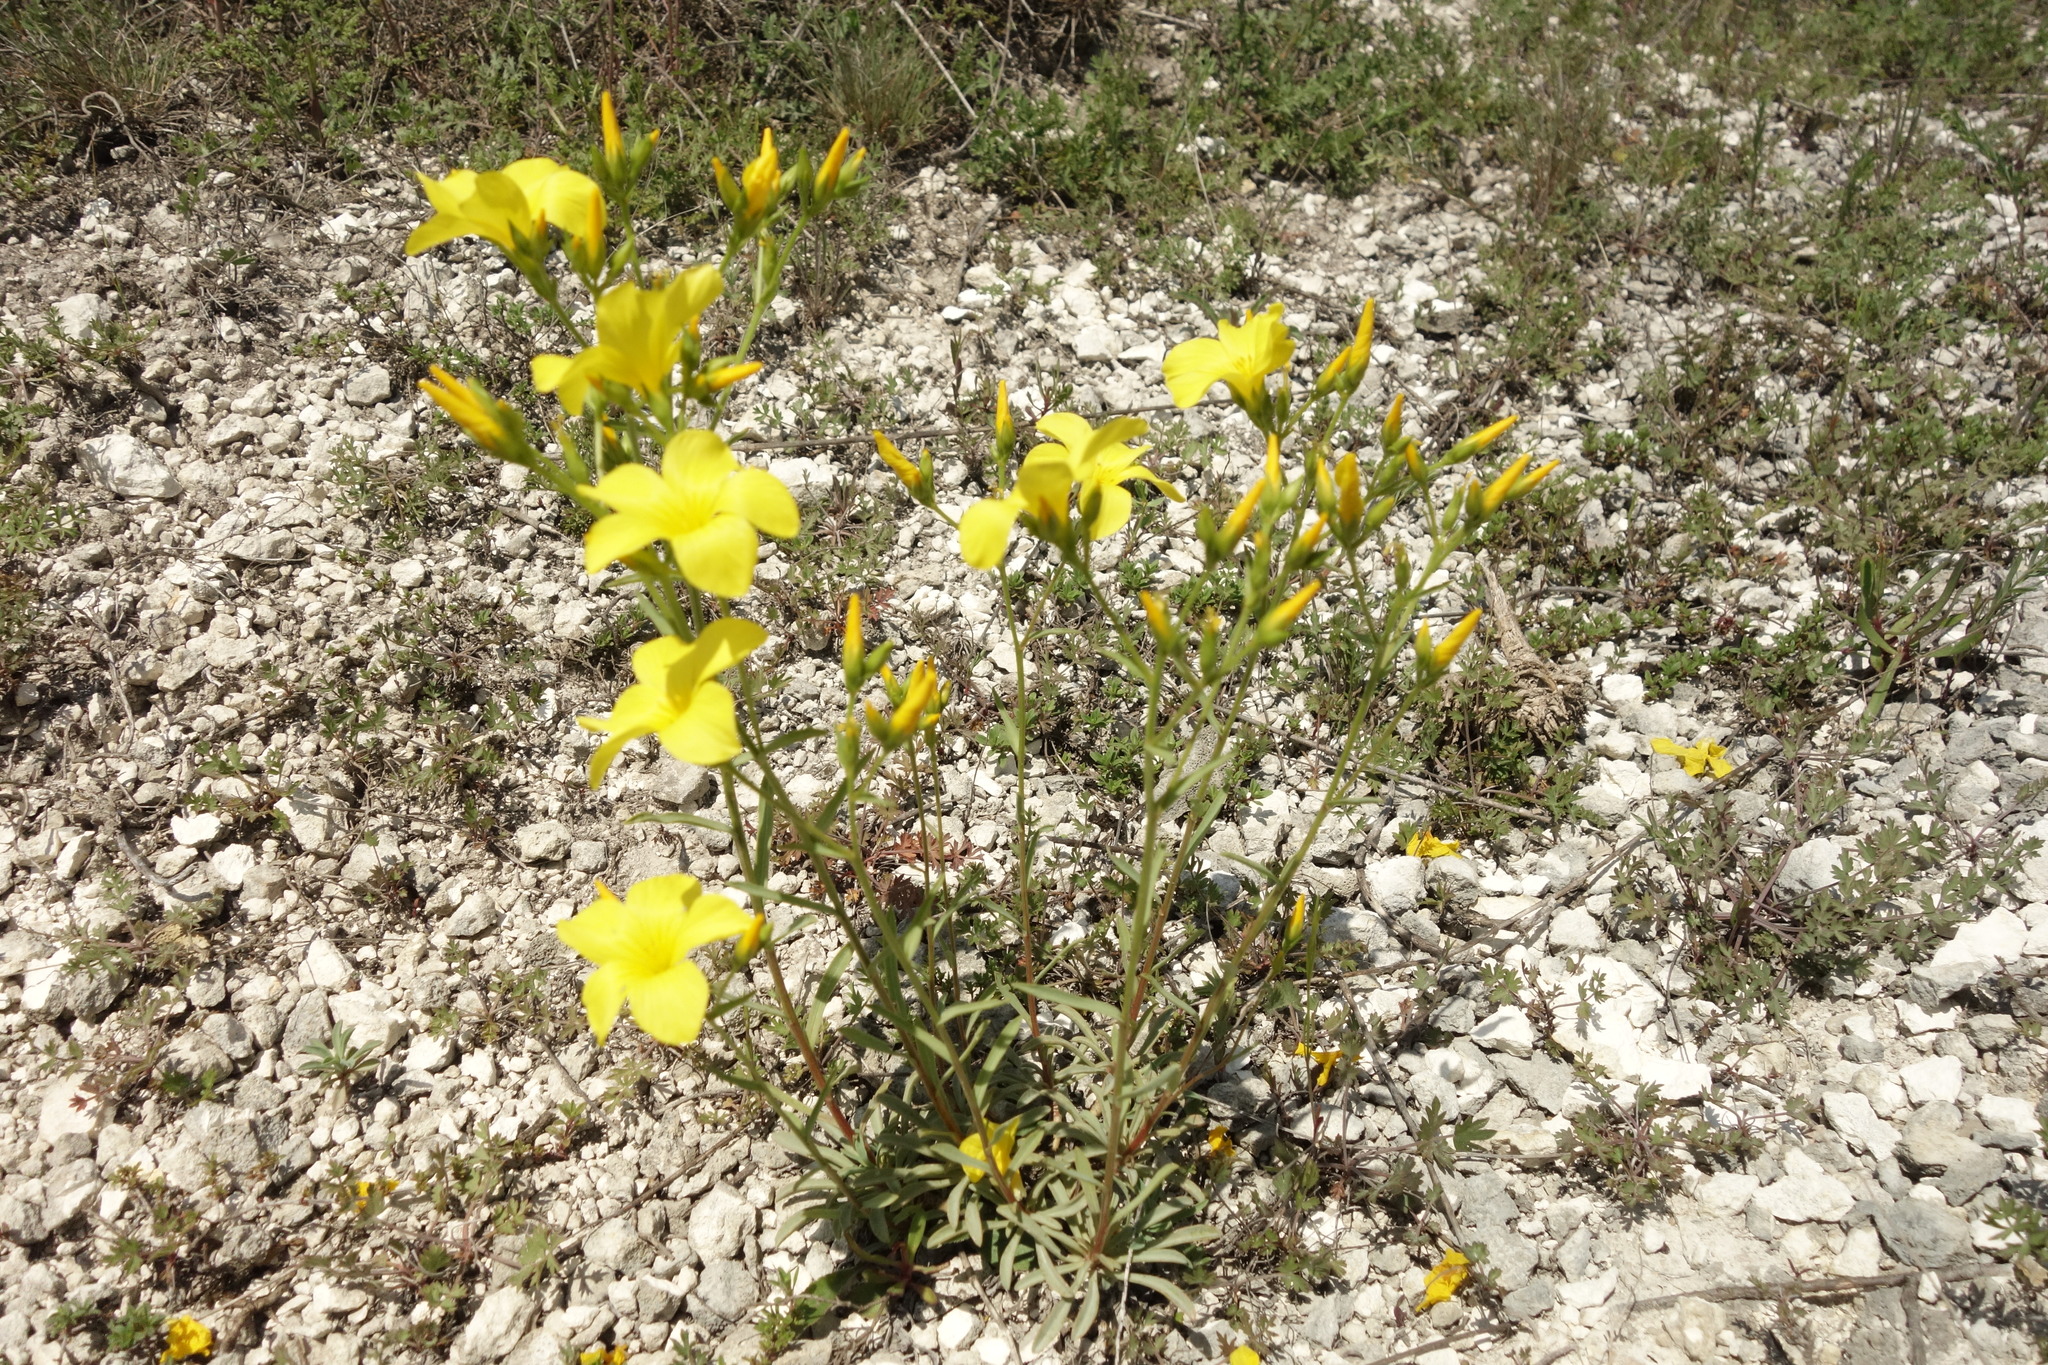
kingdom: Plantae
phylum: Tracheophyta
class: Magnoliopsida
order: Malpighiales
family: Linaceae
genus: Linum
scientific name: Linum ucranicum
